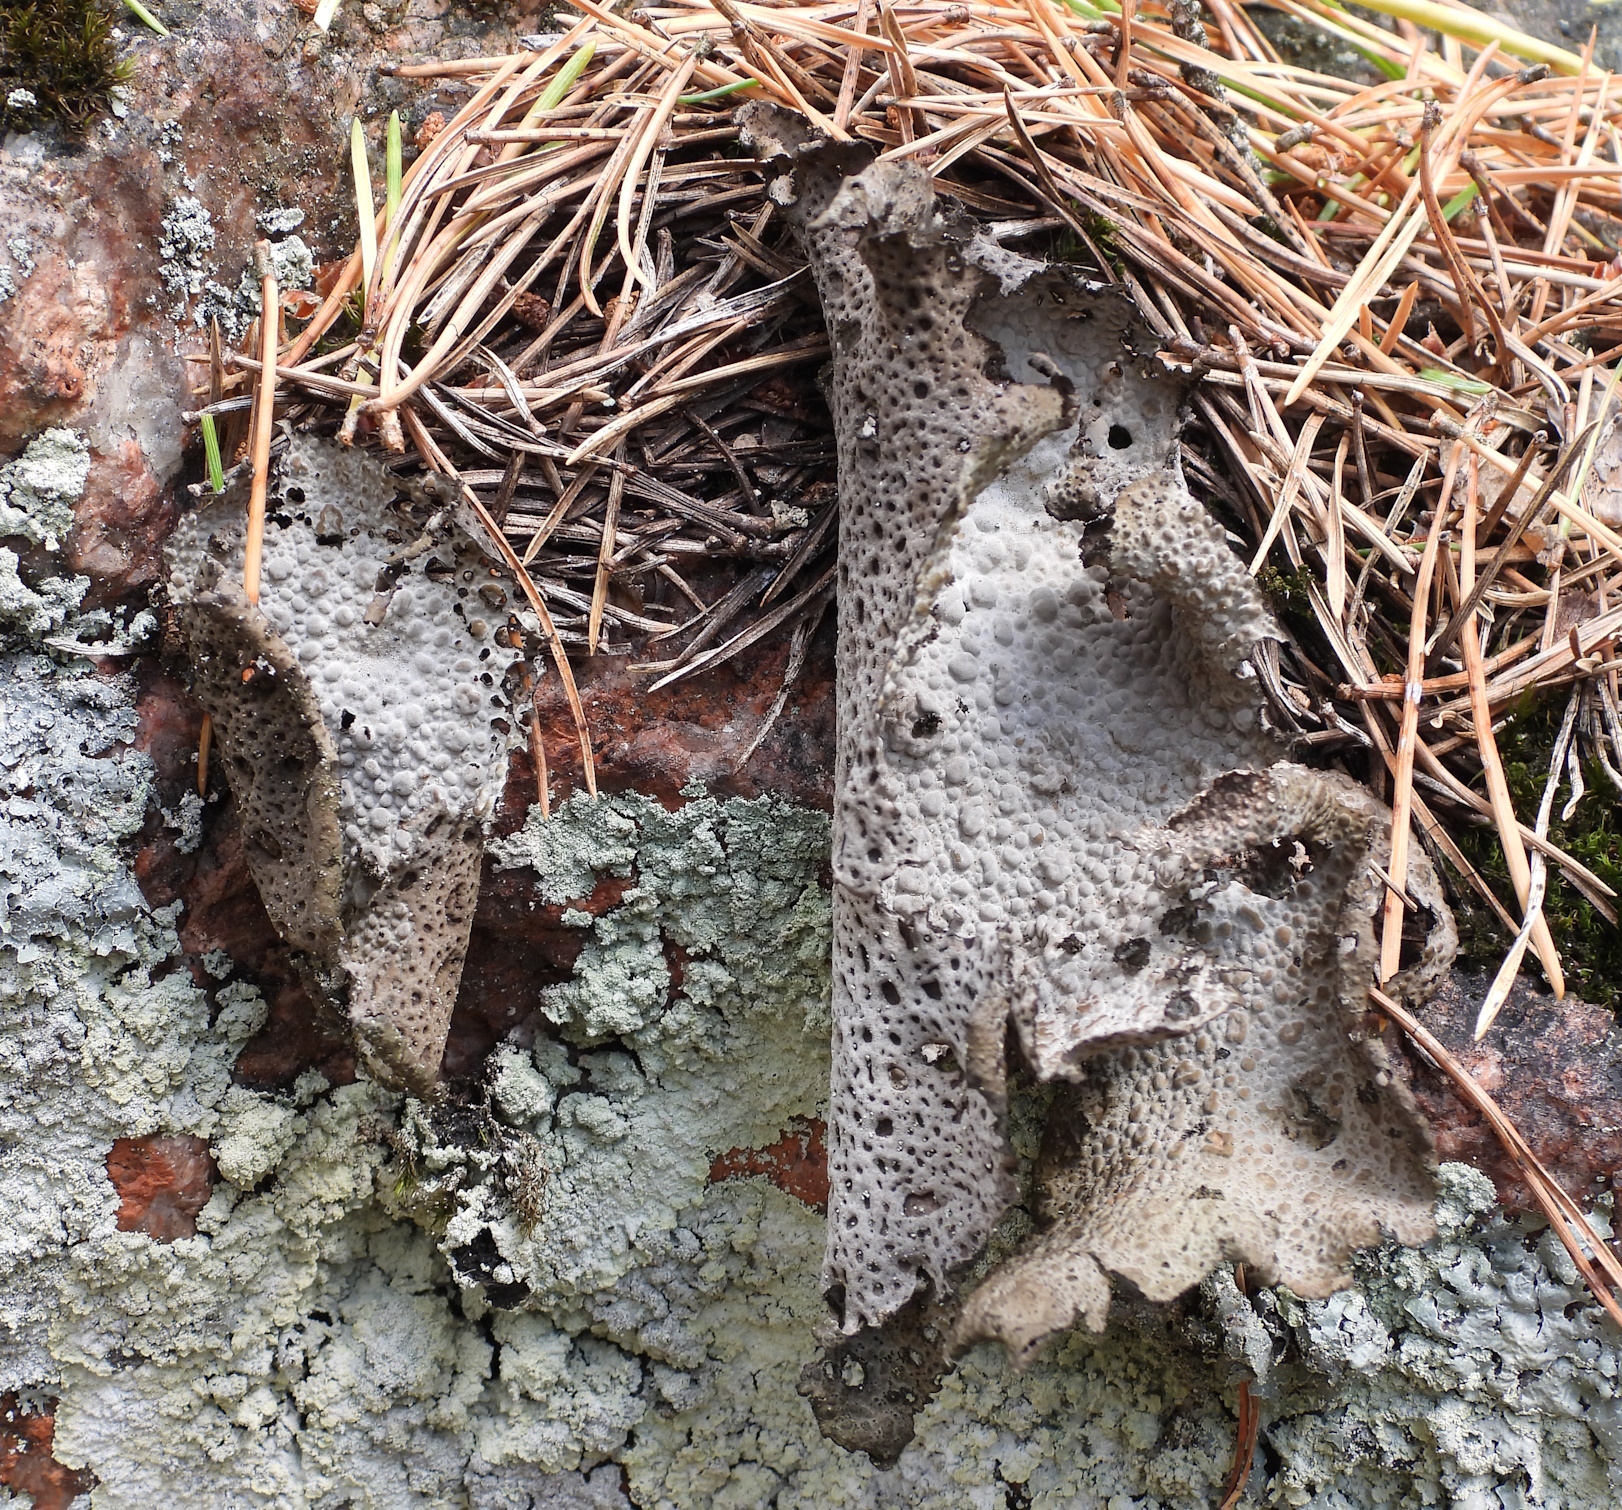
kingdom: Fungi
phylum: Ascomycota
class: Lecanoromycetes
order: Umbilicariales
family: Umbilicariaceae
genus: Lasallia
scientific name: Lasallia pustulata
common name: Blistered toadskin lichen
